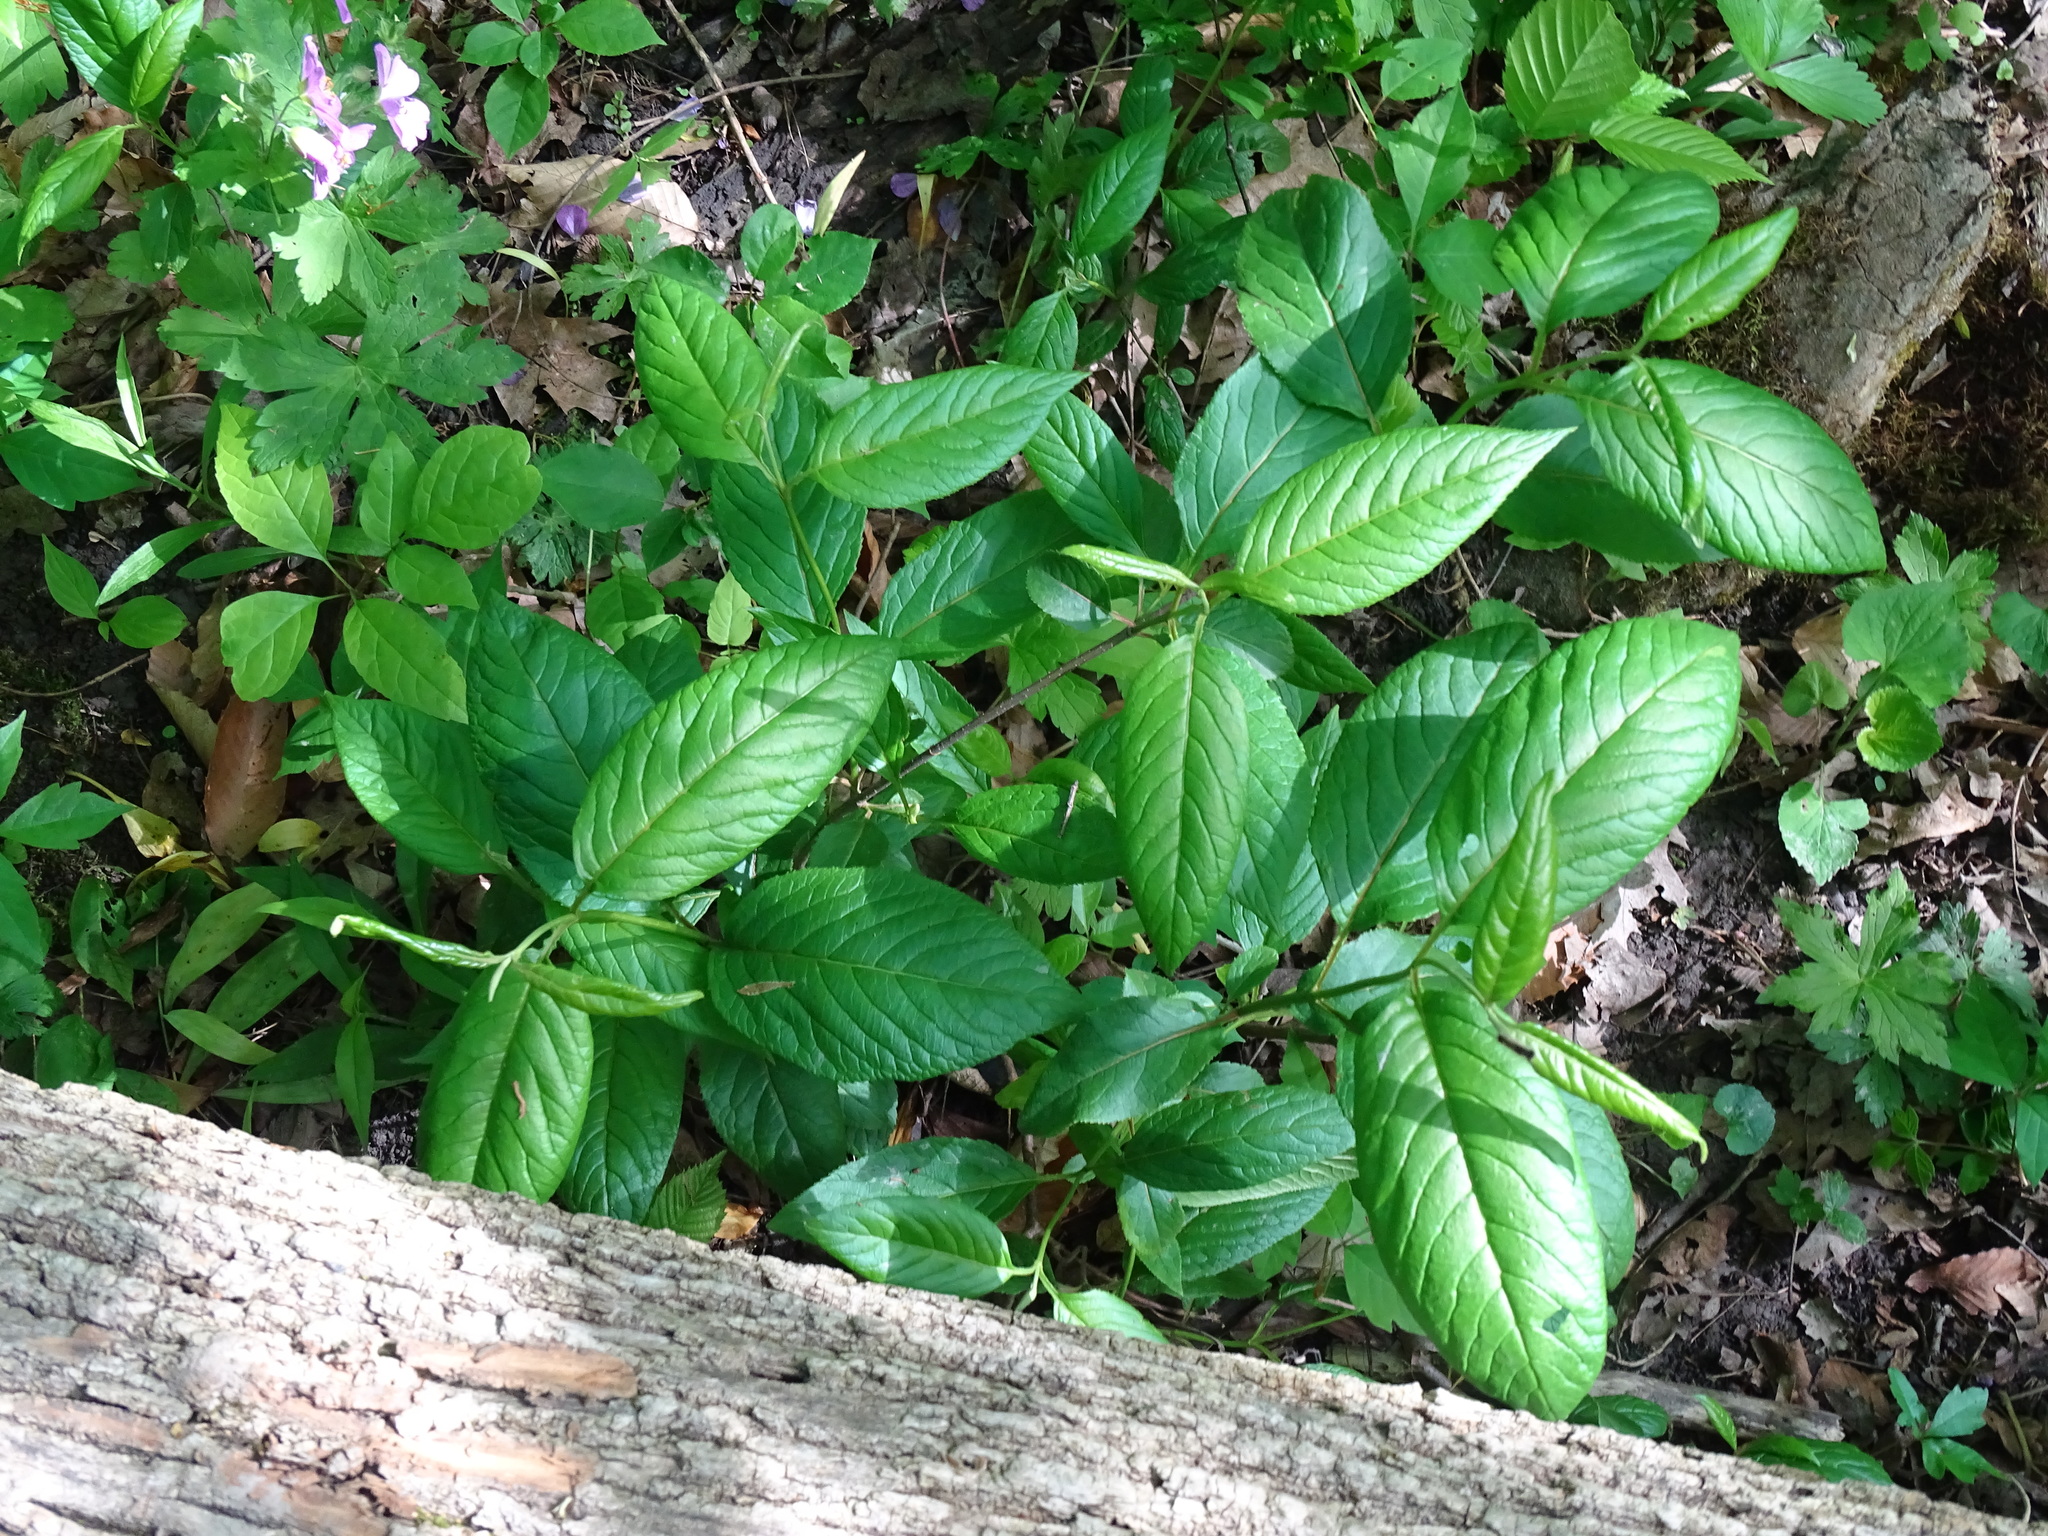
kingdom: Plantae
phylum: Tracheophyta
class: Magnoliopsida
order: Dipsacales
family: Viburnaceae
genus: Viburnum
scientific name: Viburnum lentago
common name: Black haw
